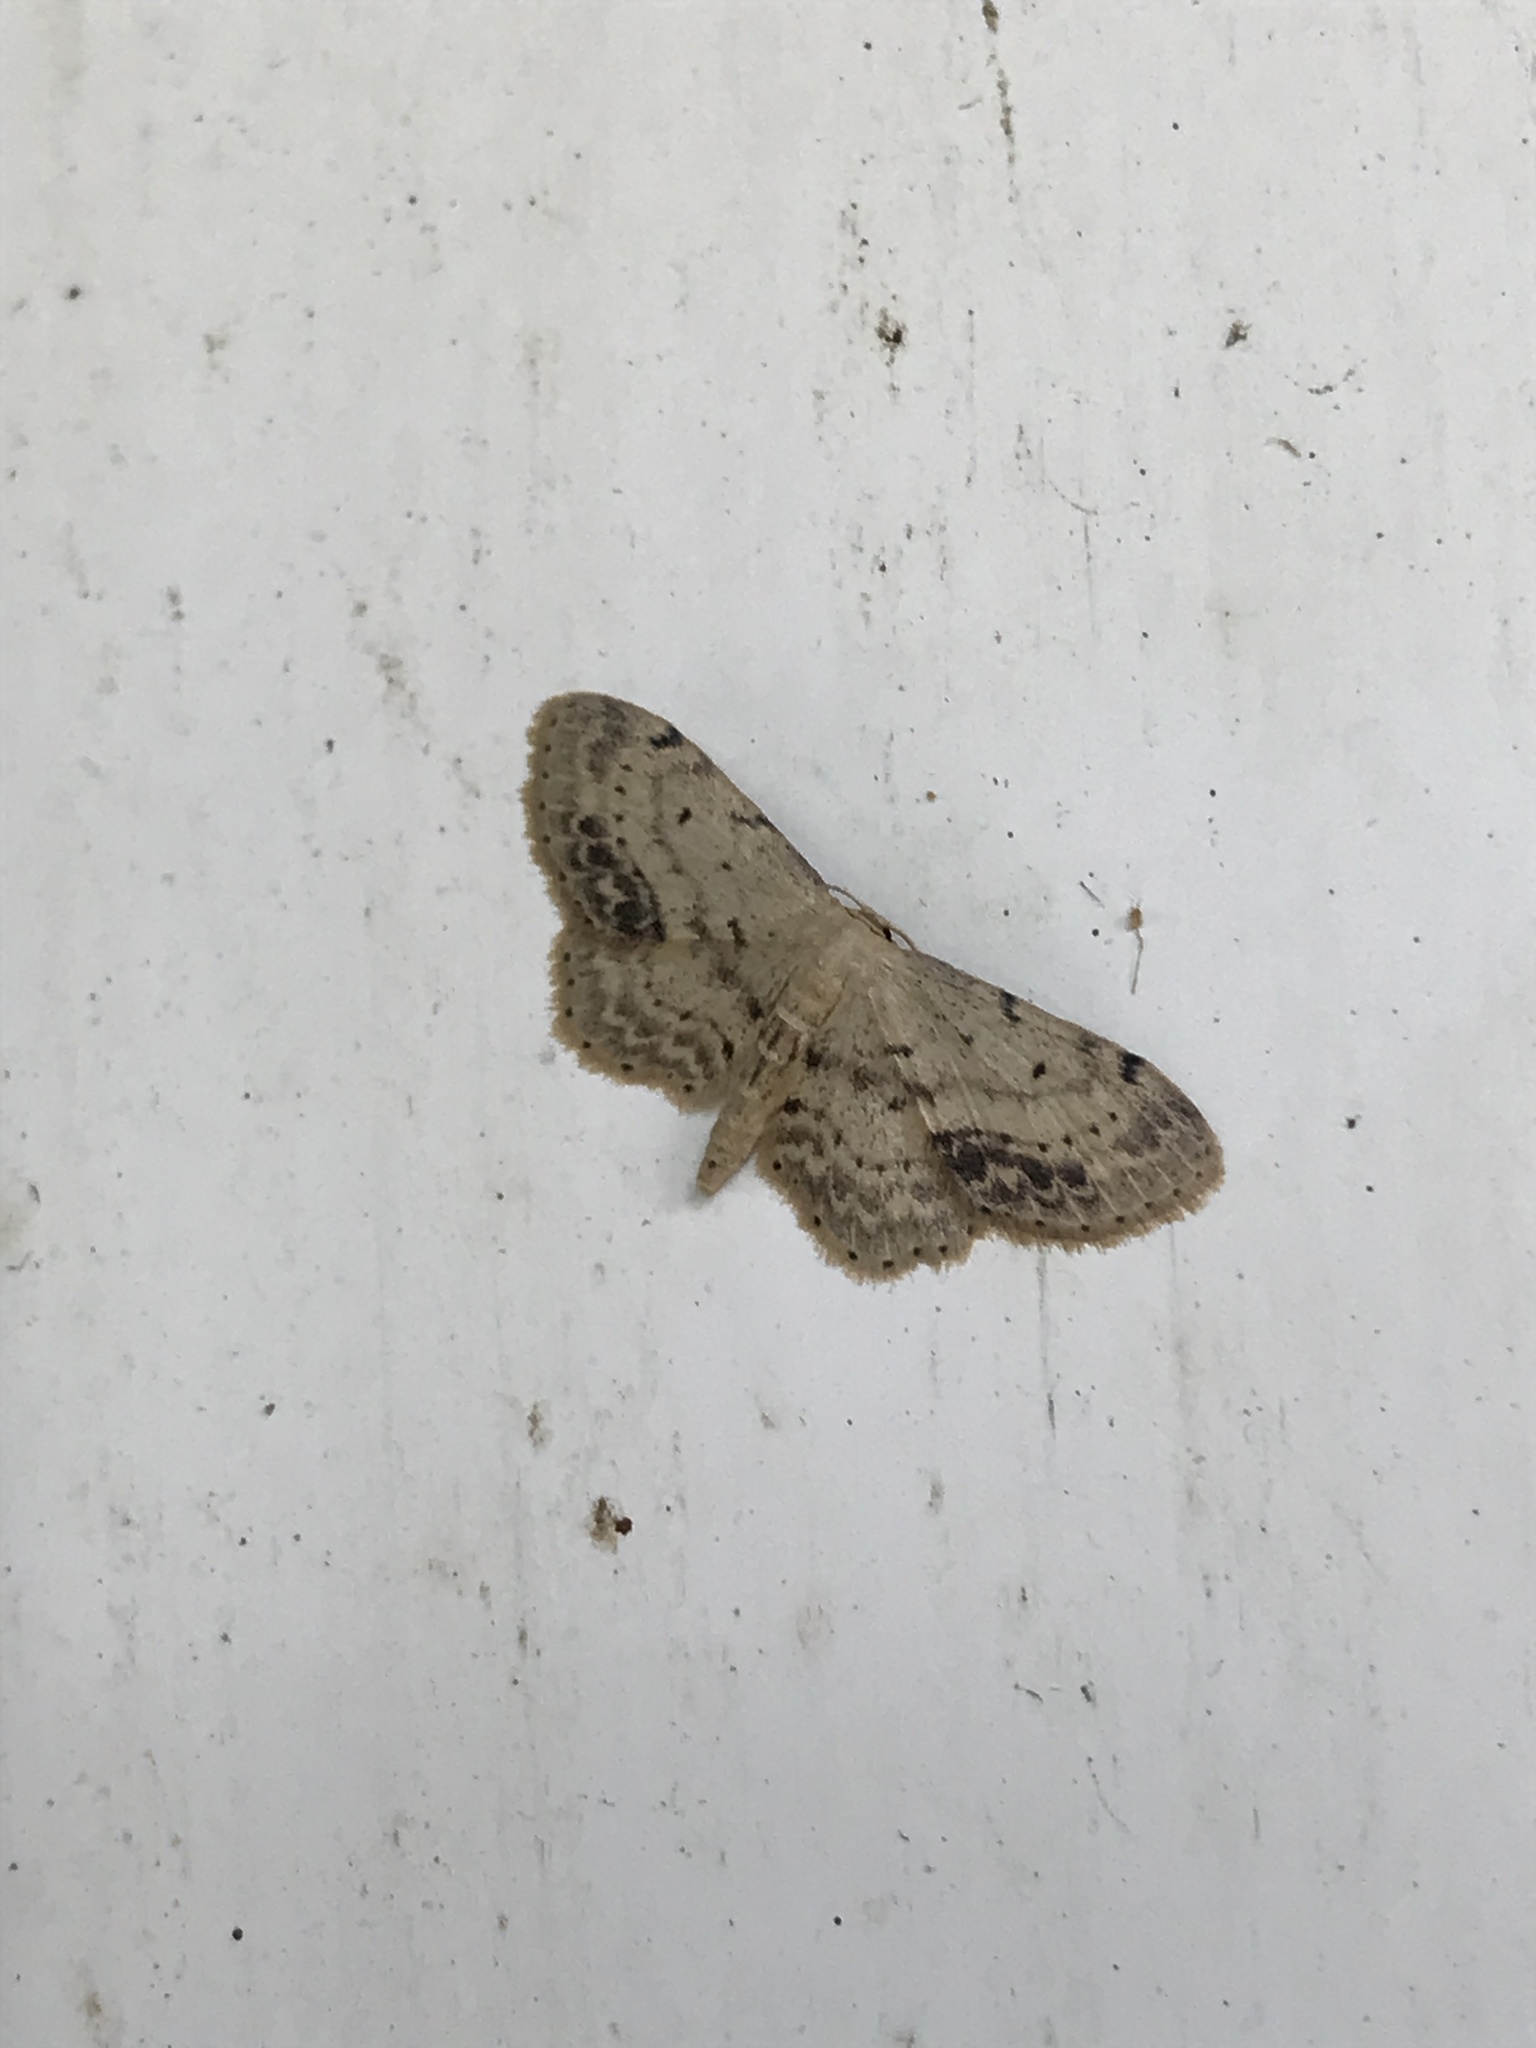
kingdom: Animalia
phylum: Arthropoda
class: Insecta
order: Lepidoptera
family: Geometridae
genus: Idaea
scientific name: Idaea dimidiata
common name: Single-dotted wave
